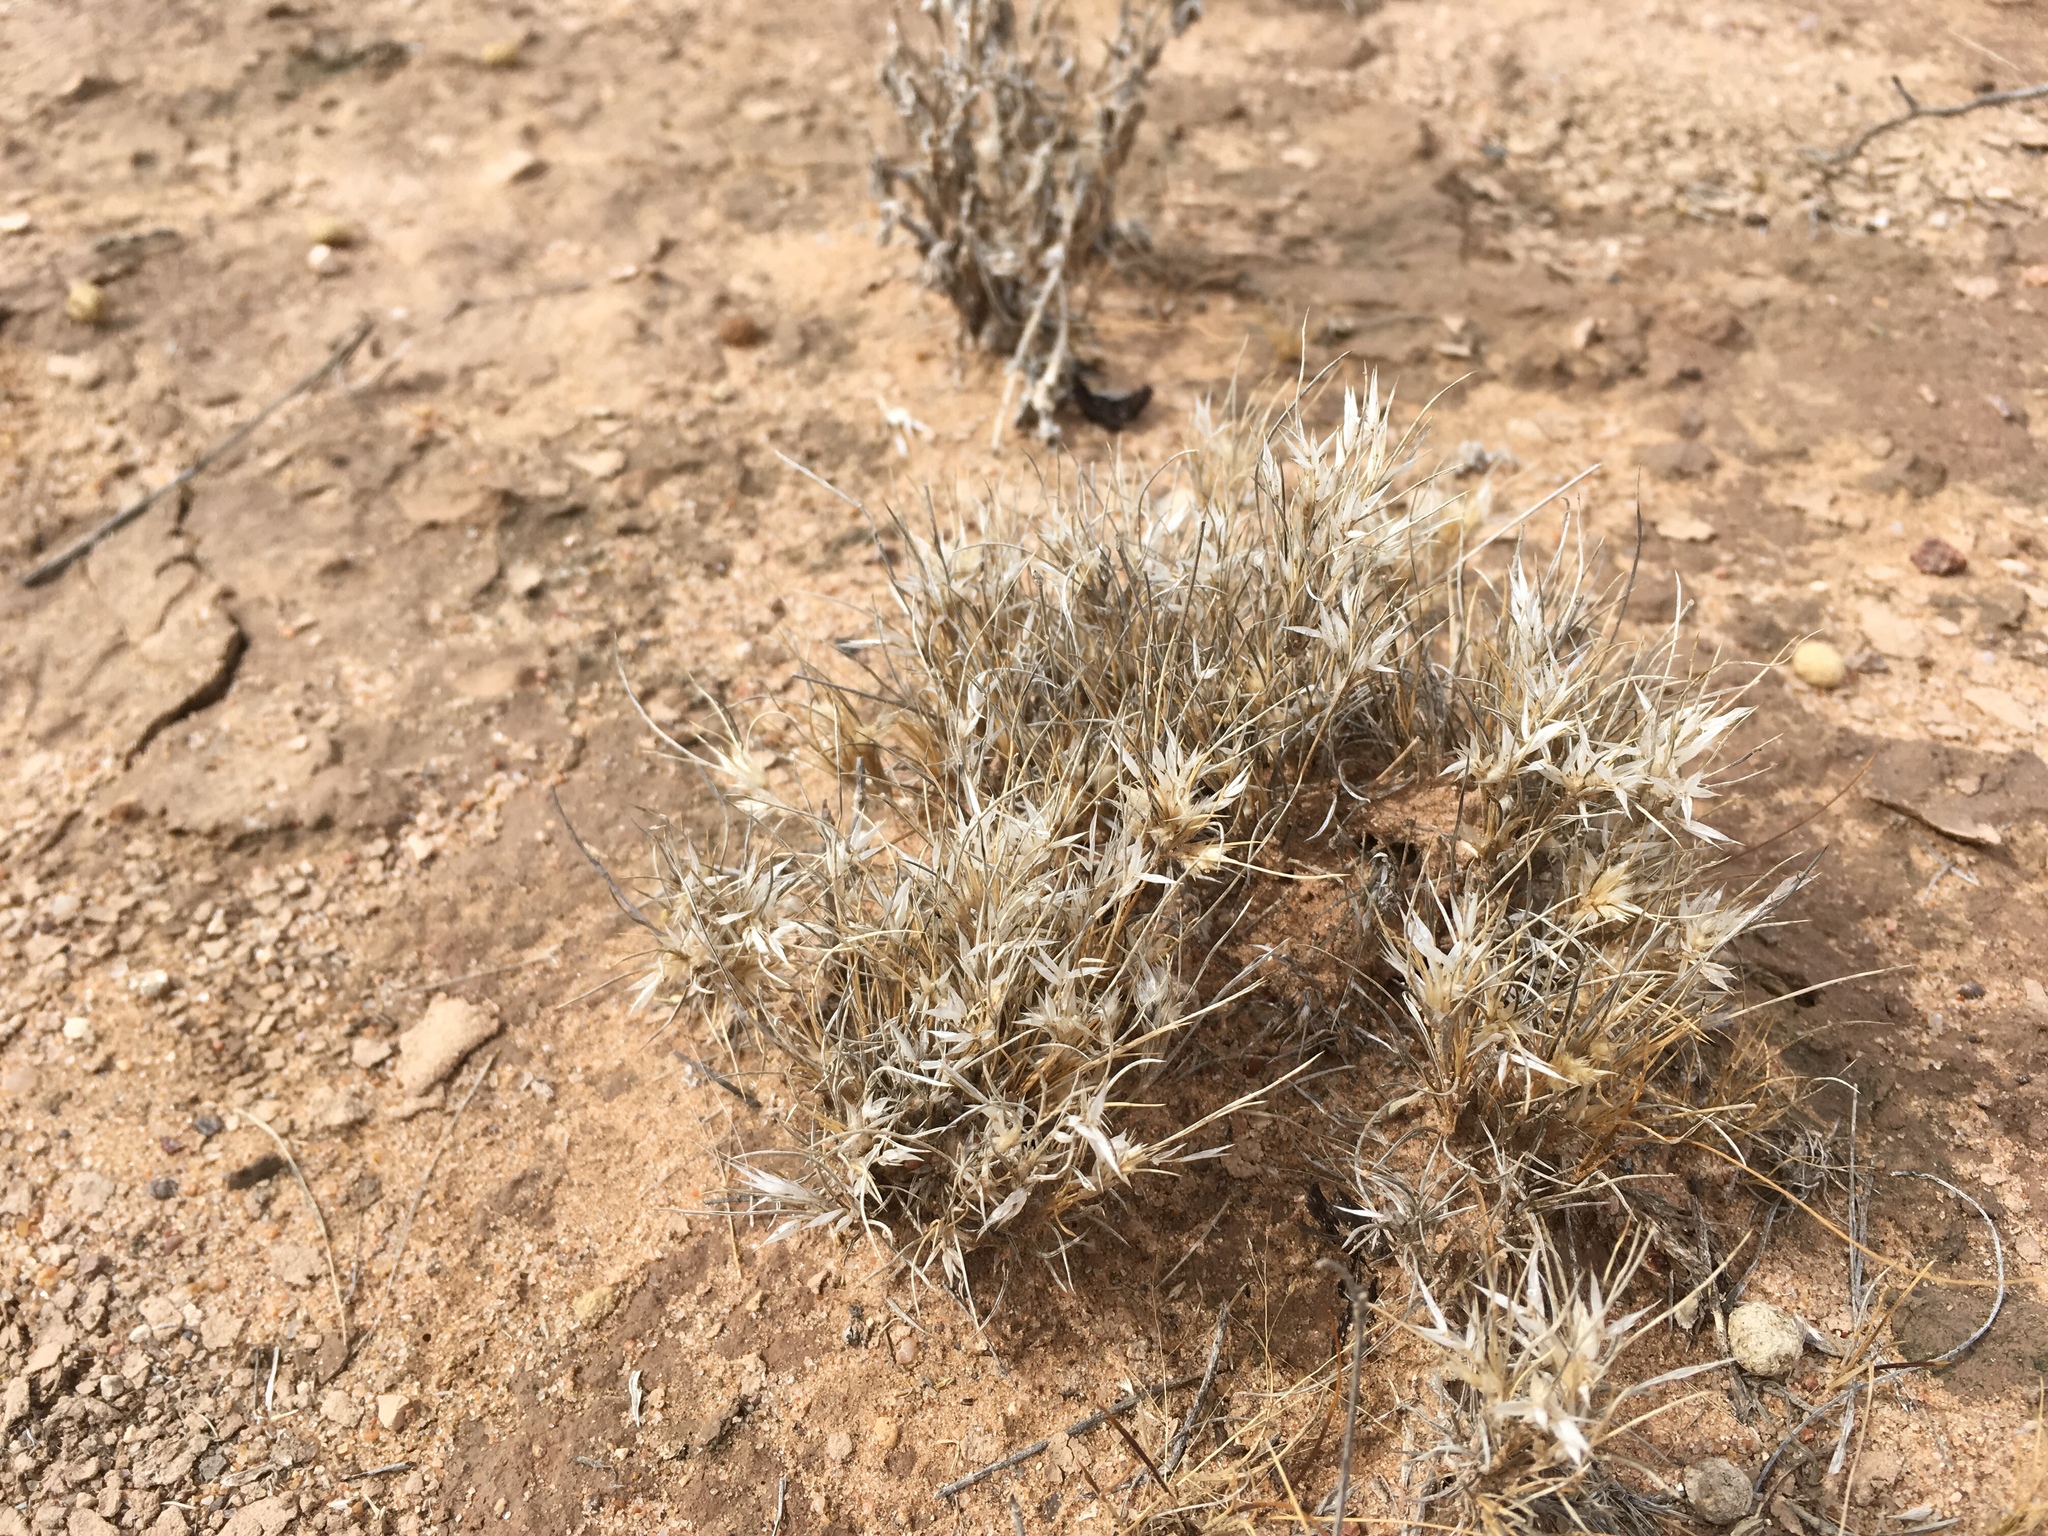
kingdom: Plantae
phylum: Tracheophyta
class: Liliopsida
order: Poales
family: Poaceae
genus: Dasyochloa
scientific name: Dasyochloa pulchella
